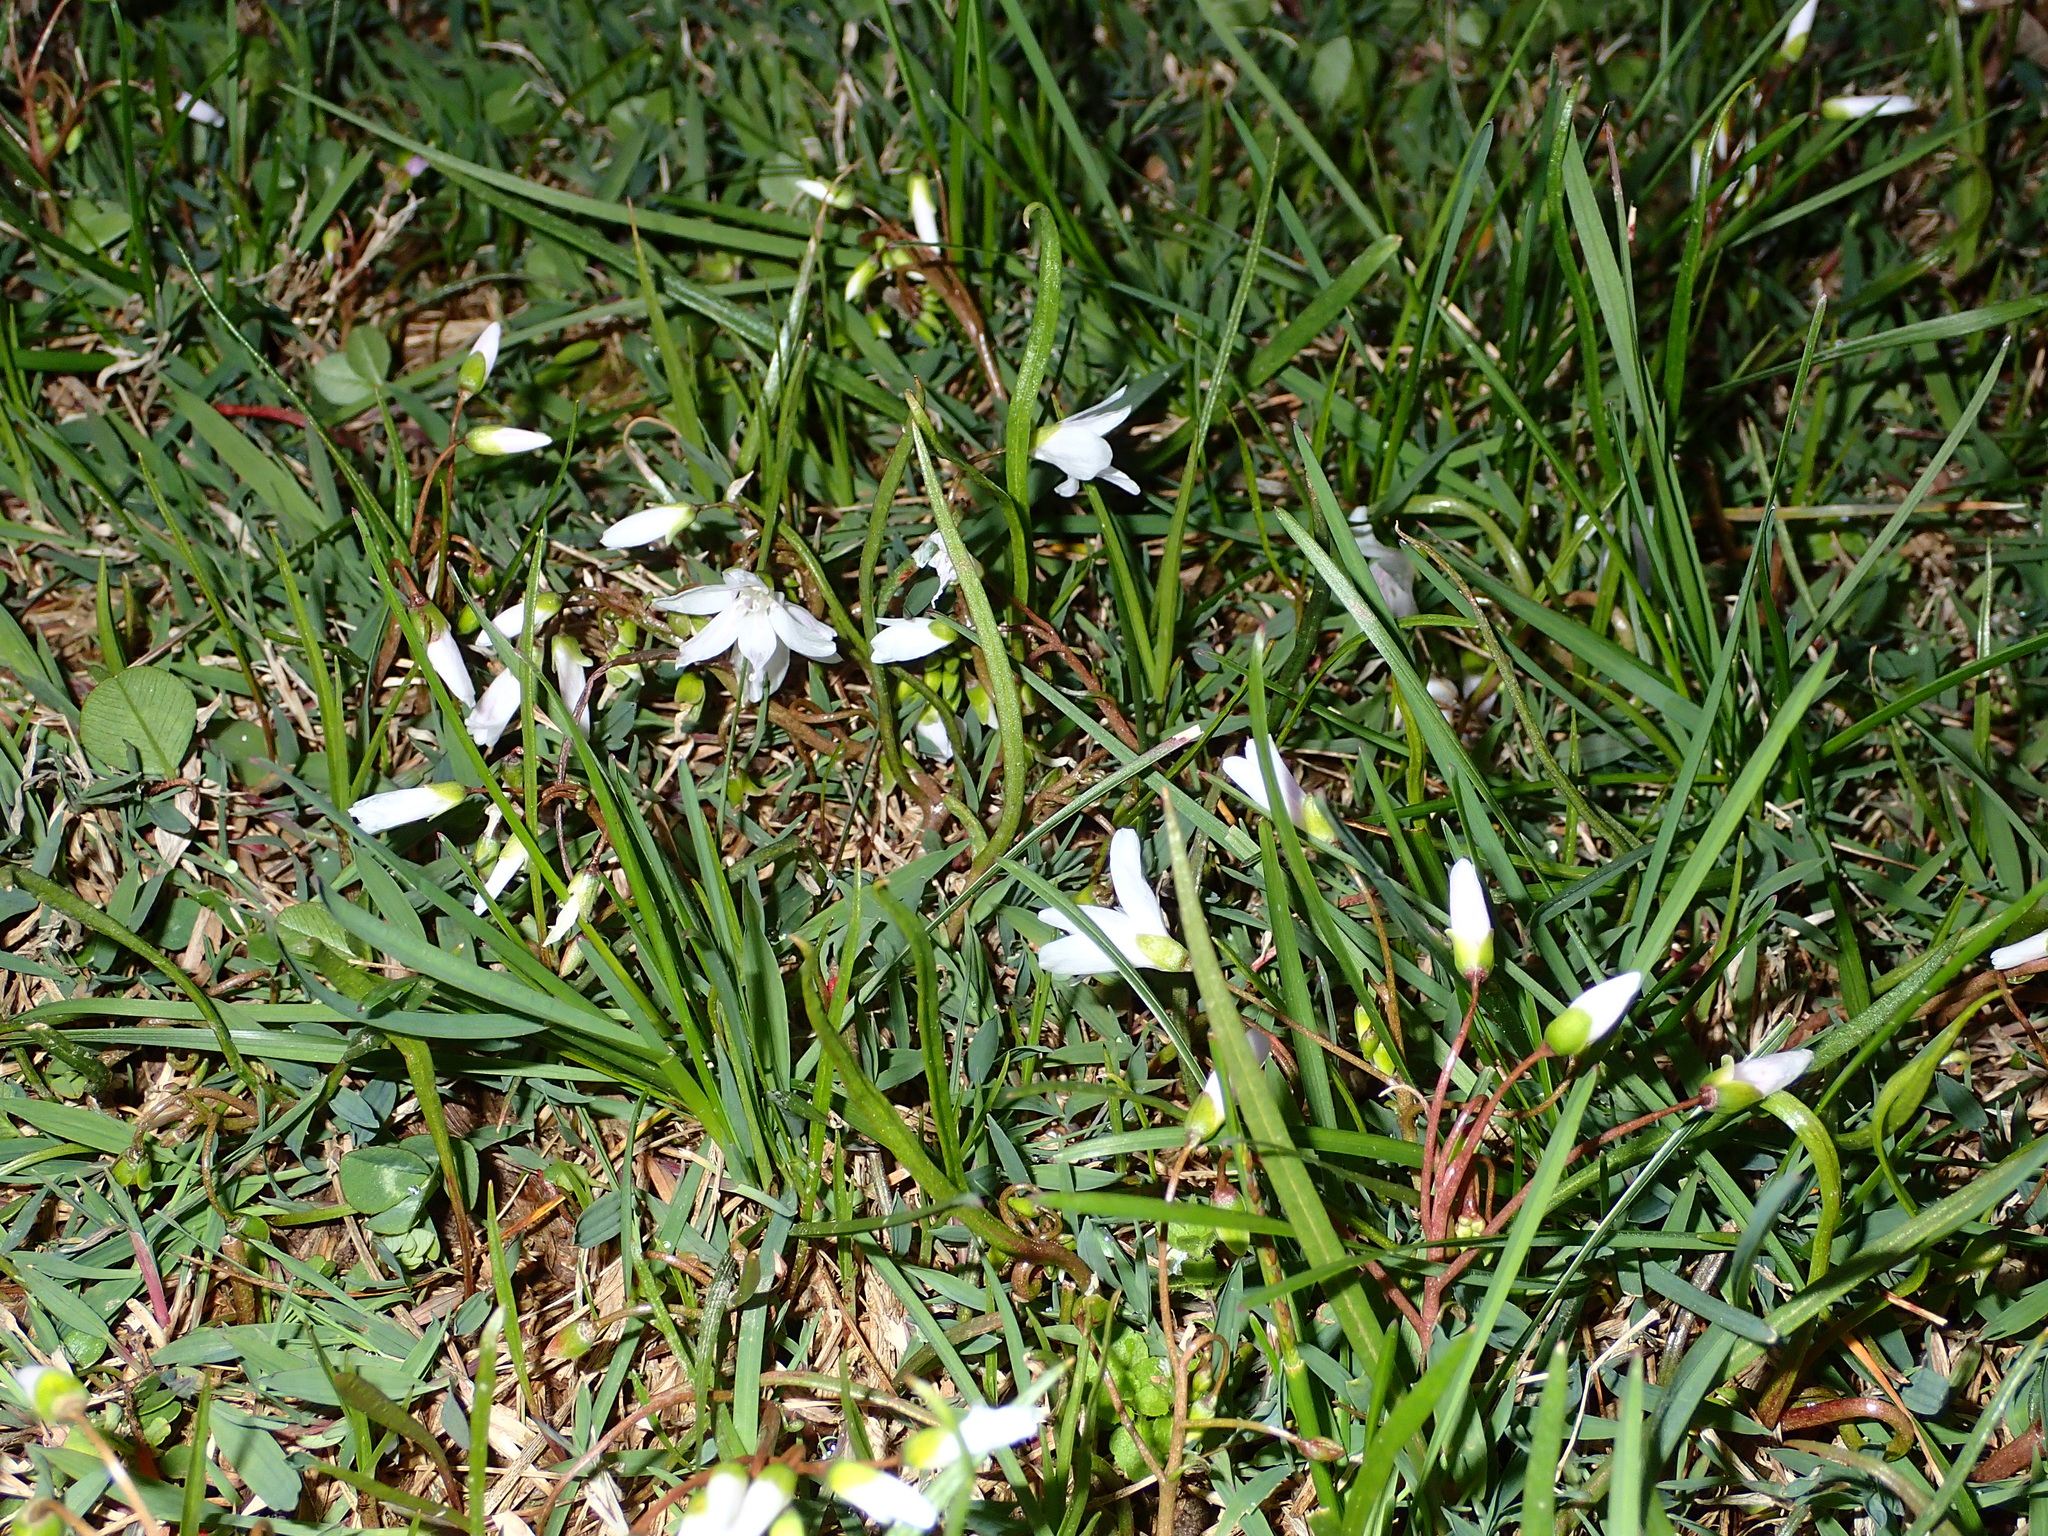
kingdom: Plantae
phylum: Tracheophyta
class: Magnoliopsida
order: Caryophyllales
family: Montiaceae
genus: Claytonia
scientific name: Claytonia virginica
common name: Virginia springbeauty
